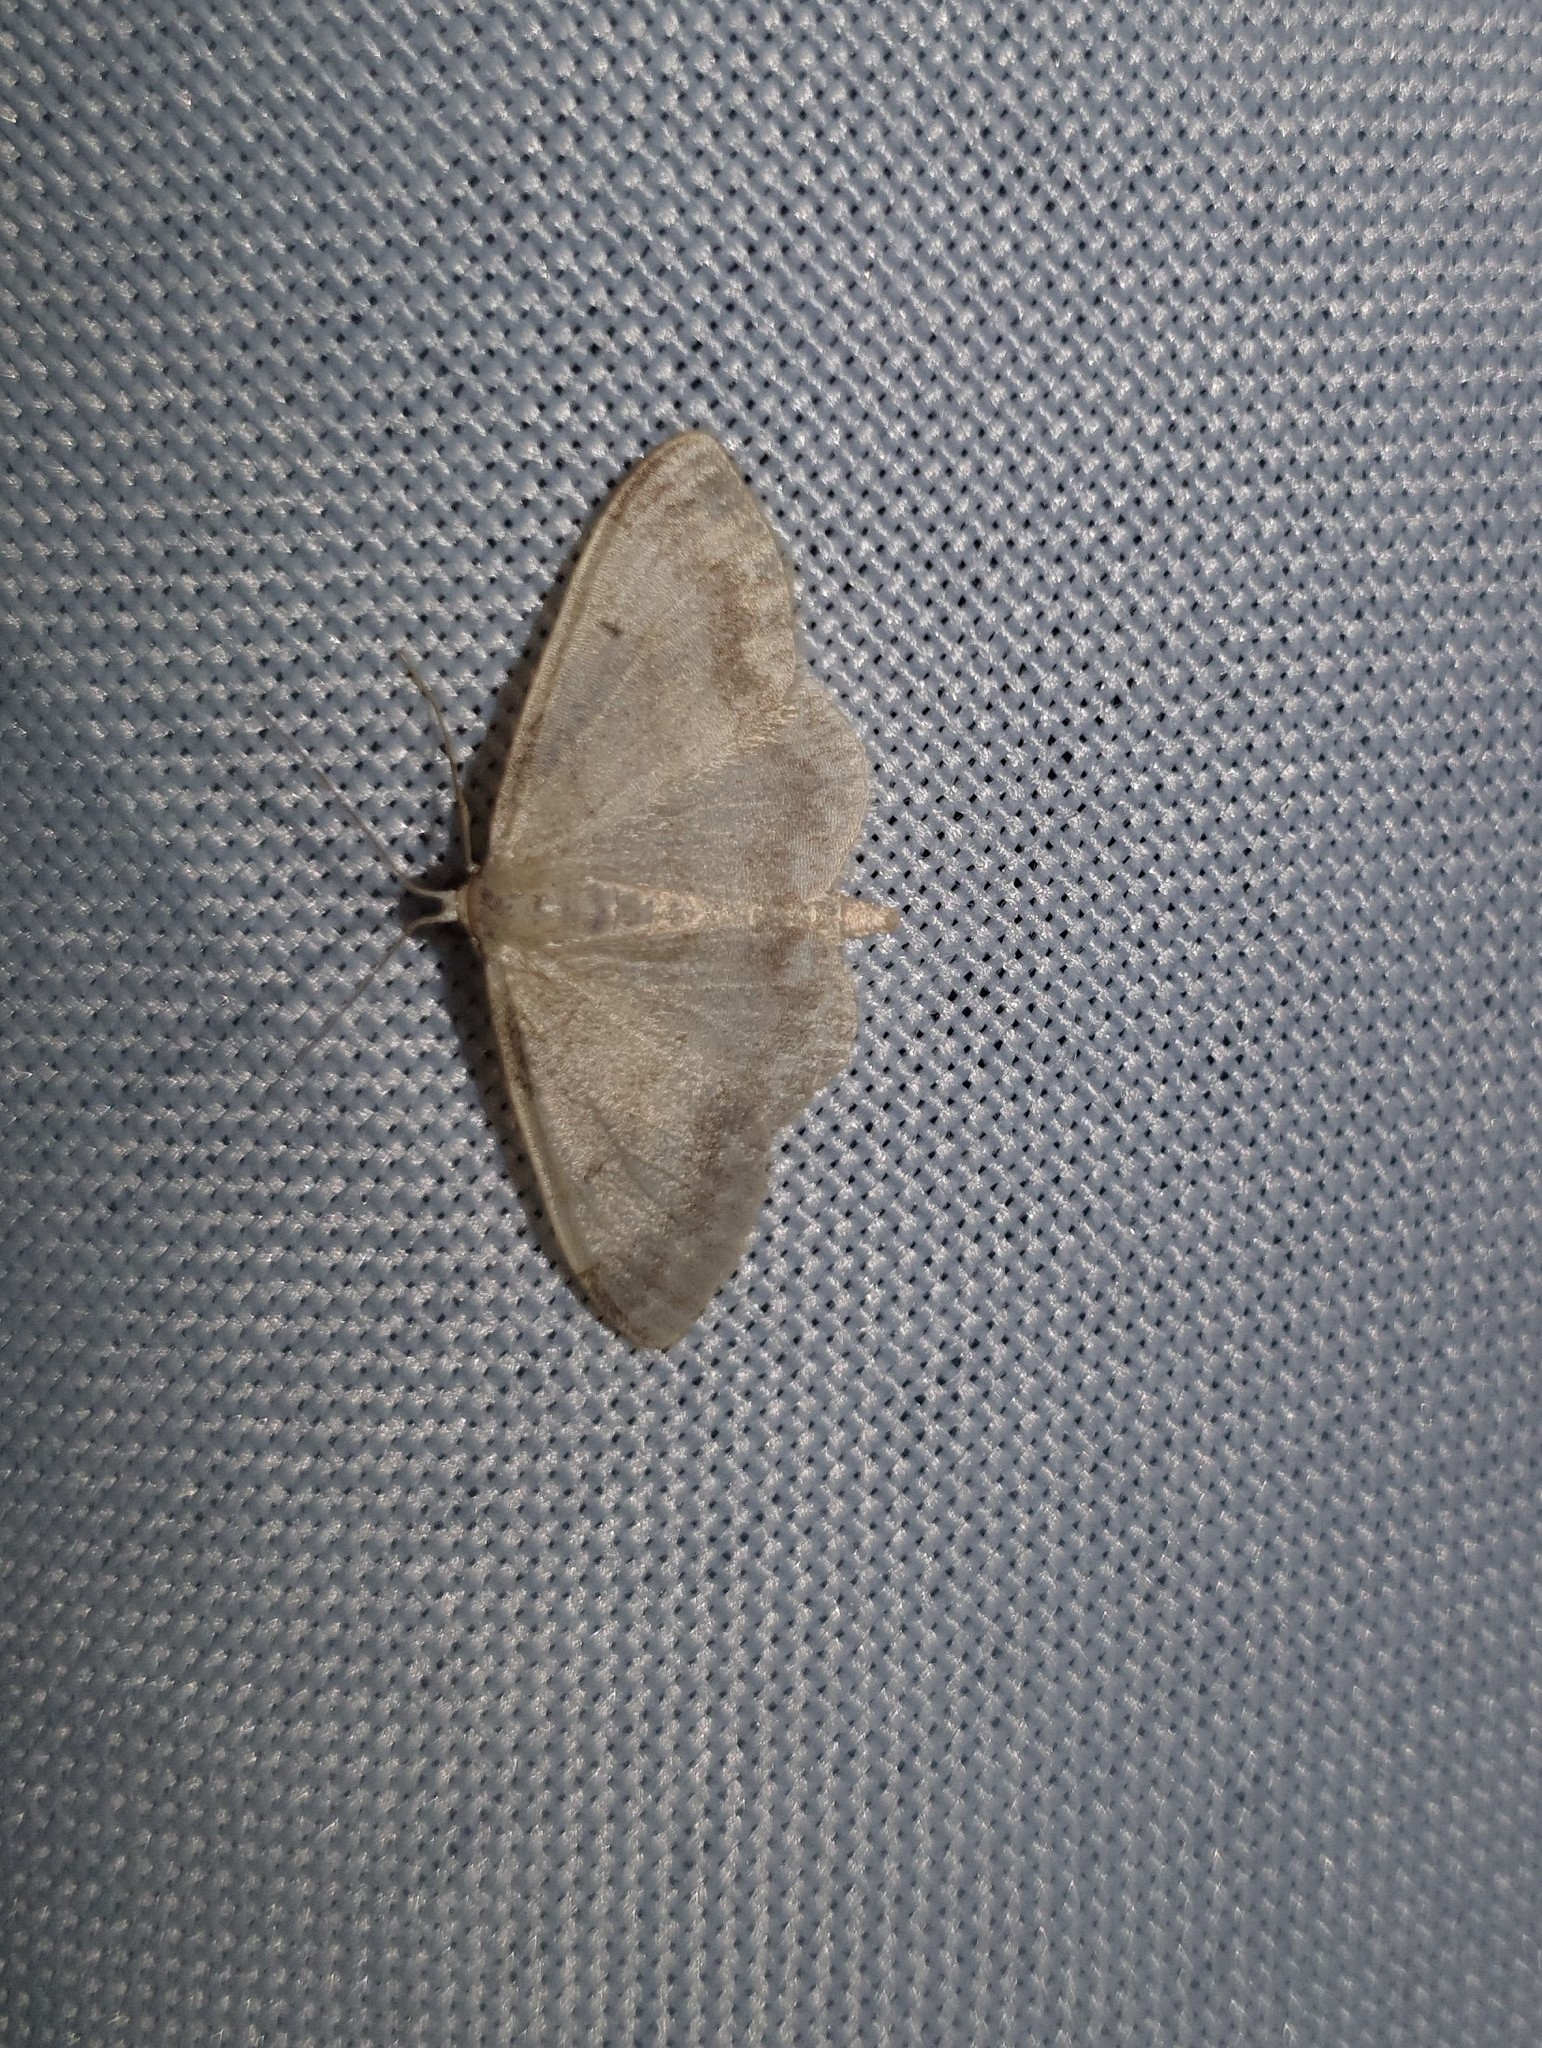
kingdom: Animalia
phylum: Arthropoda
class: Insecta
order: Lepidoptera
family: Geometridae
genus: Idaea
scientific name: Idaea biselata
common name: Small fan-footed wave
